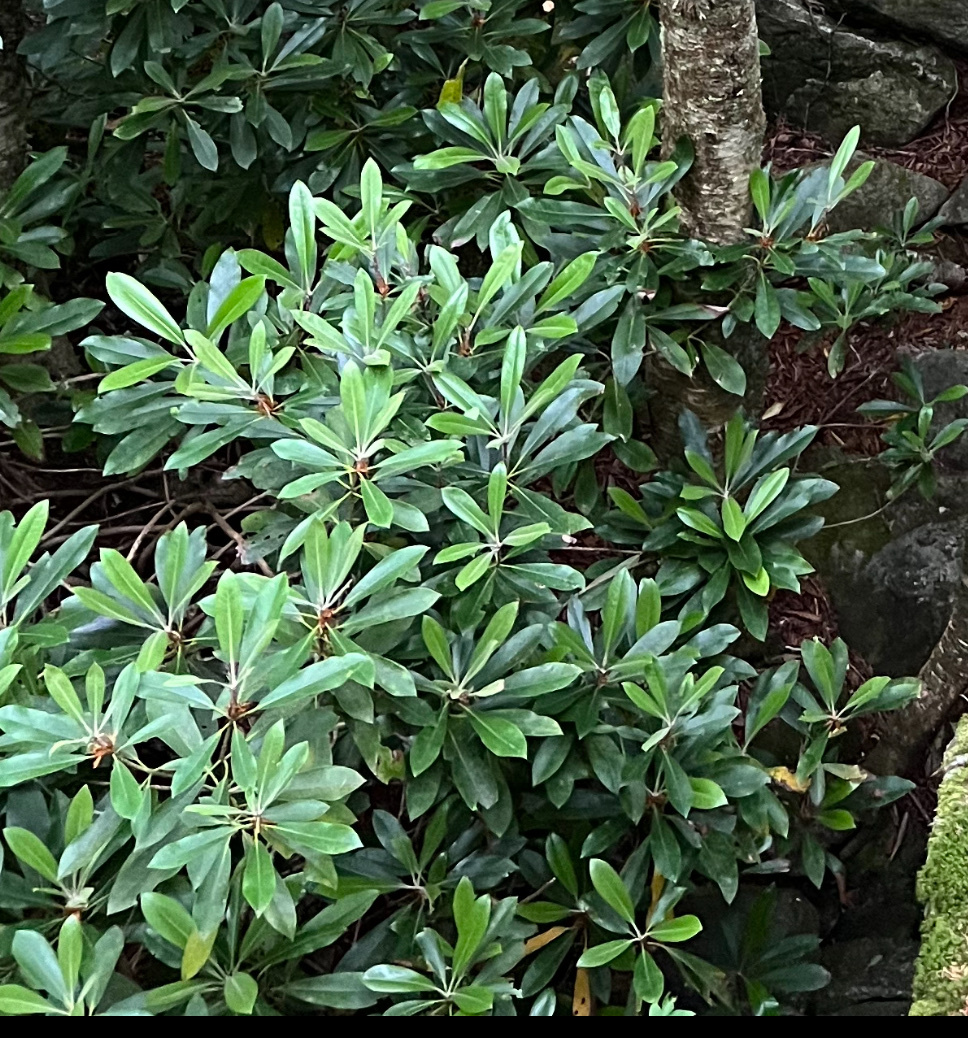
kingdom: Plantae
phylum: Tracheophyta
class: Magnoliopsida
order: Ericales
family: Ericaceae
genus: Rhododendron
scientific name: Rhododendron maximum
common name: Great rhododendron
